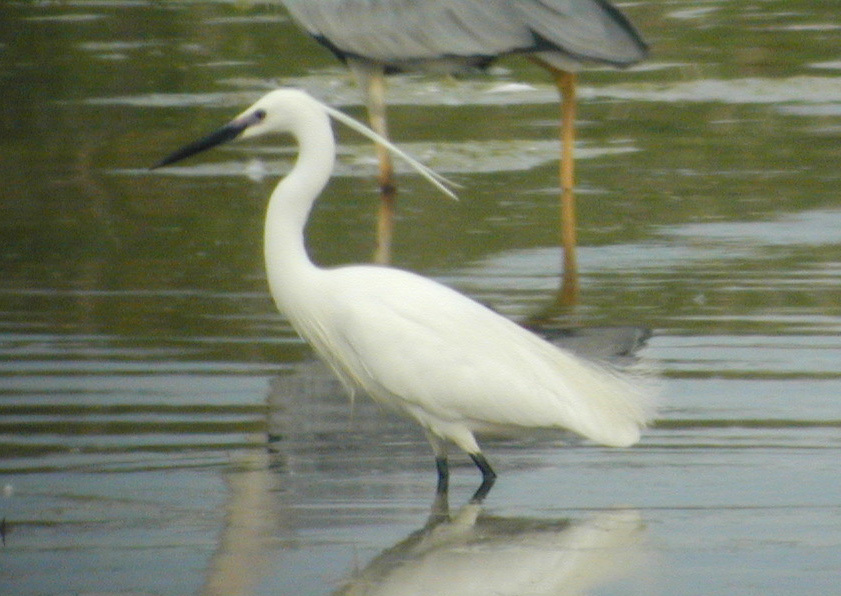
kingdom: Animalia
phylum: Chordata
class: Aves
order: Pelecaniformes
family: Ardeidae
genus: Egretta
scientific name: Egretta garzetta
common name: Little egret
